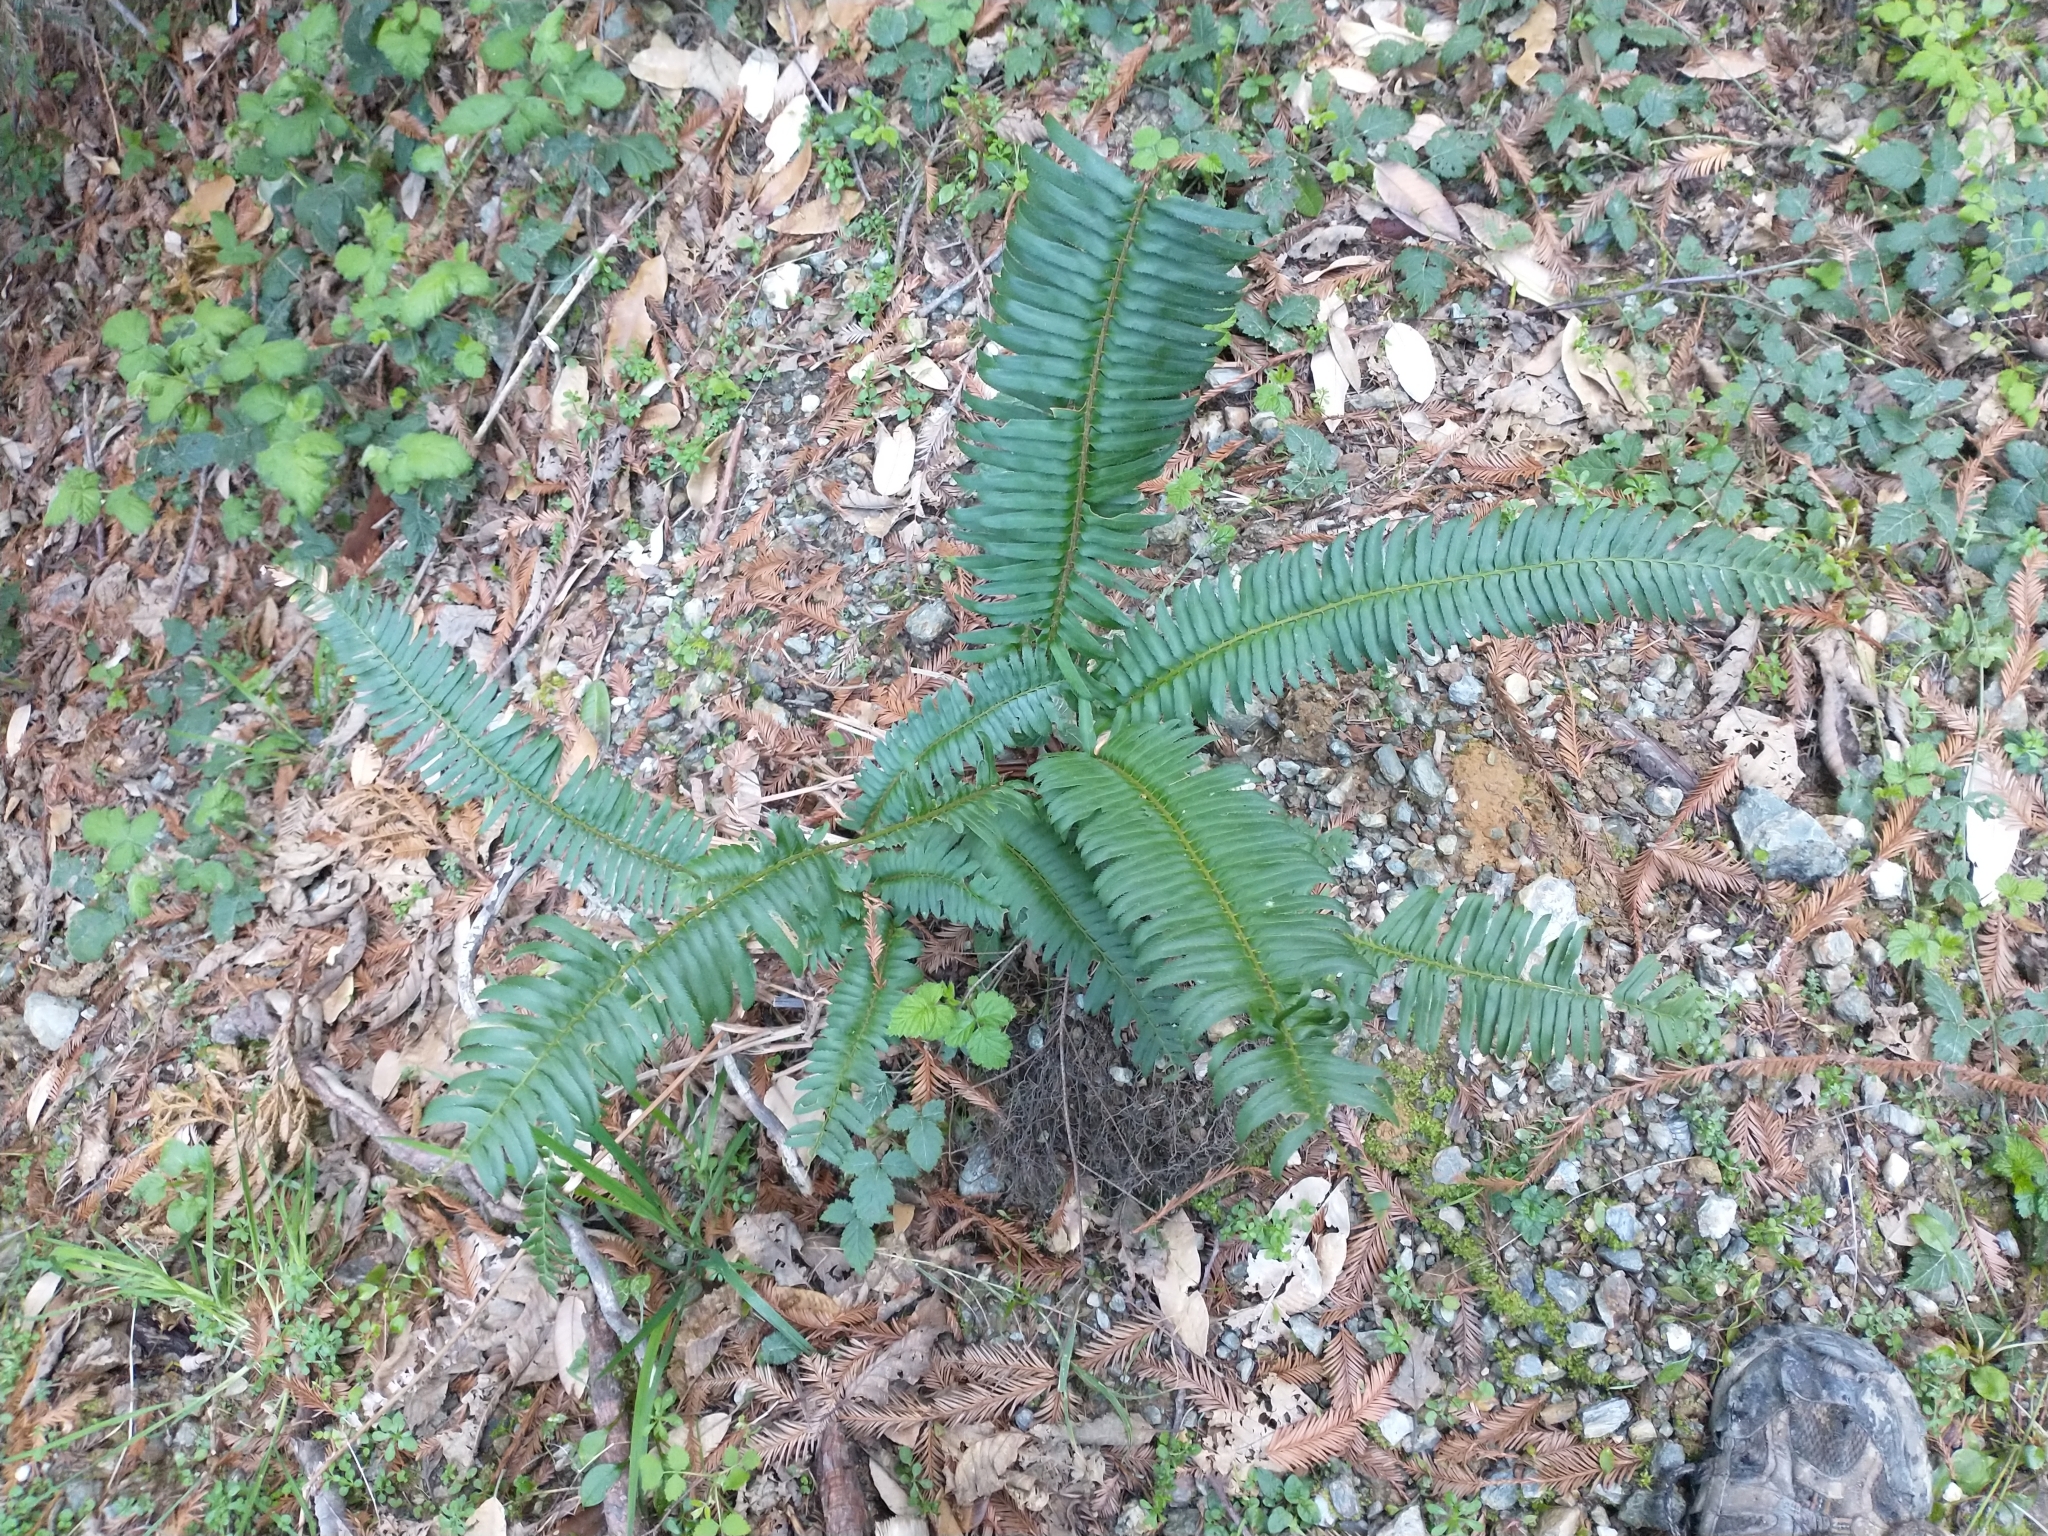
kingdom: Plantae
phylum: Tracheophyta
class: Polypodiopsida
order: Polypodiales
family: Dryopteridaceae
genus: Polystichum
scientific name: Polystichum munitum
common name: Western sword-fern
